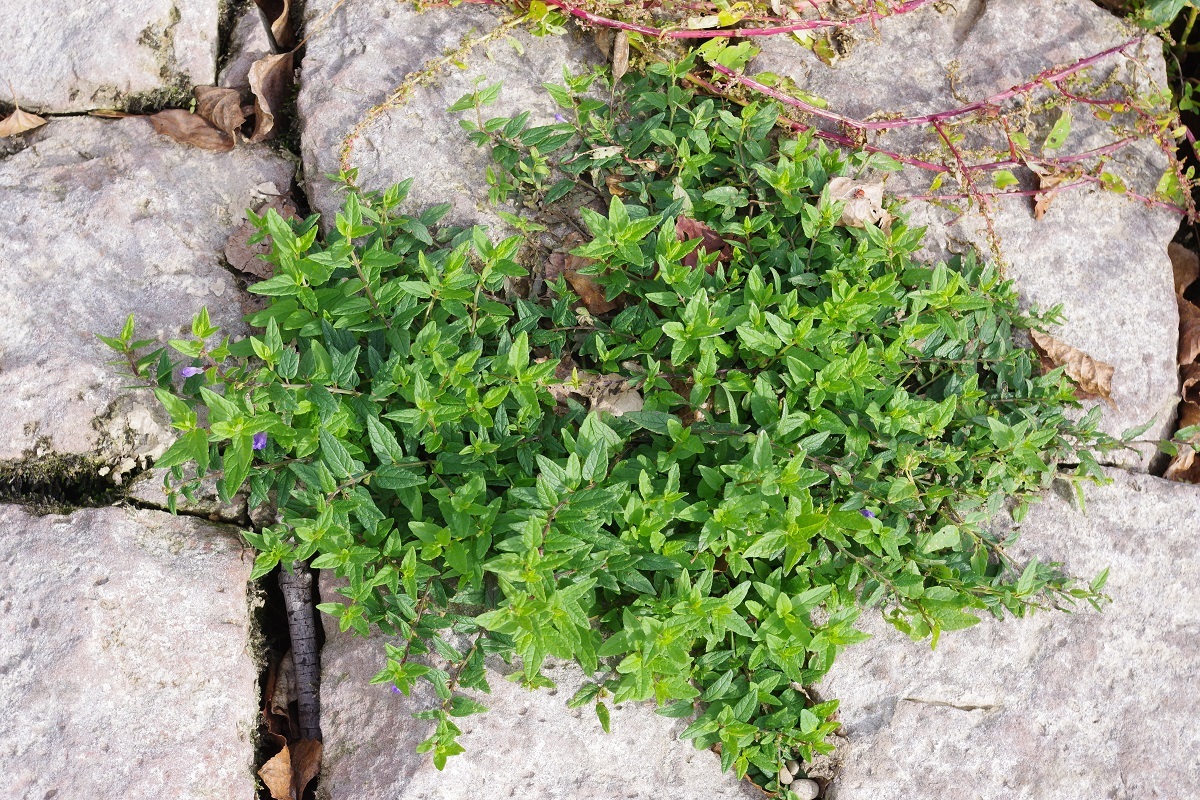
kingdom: Plantae
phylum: Tracheophyta
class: Magnoliopsida
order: Lamiales
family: Lamiaceae
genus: Scutellaria
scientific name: Scutellaria galericulata
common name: Skullcap
